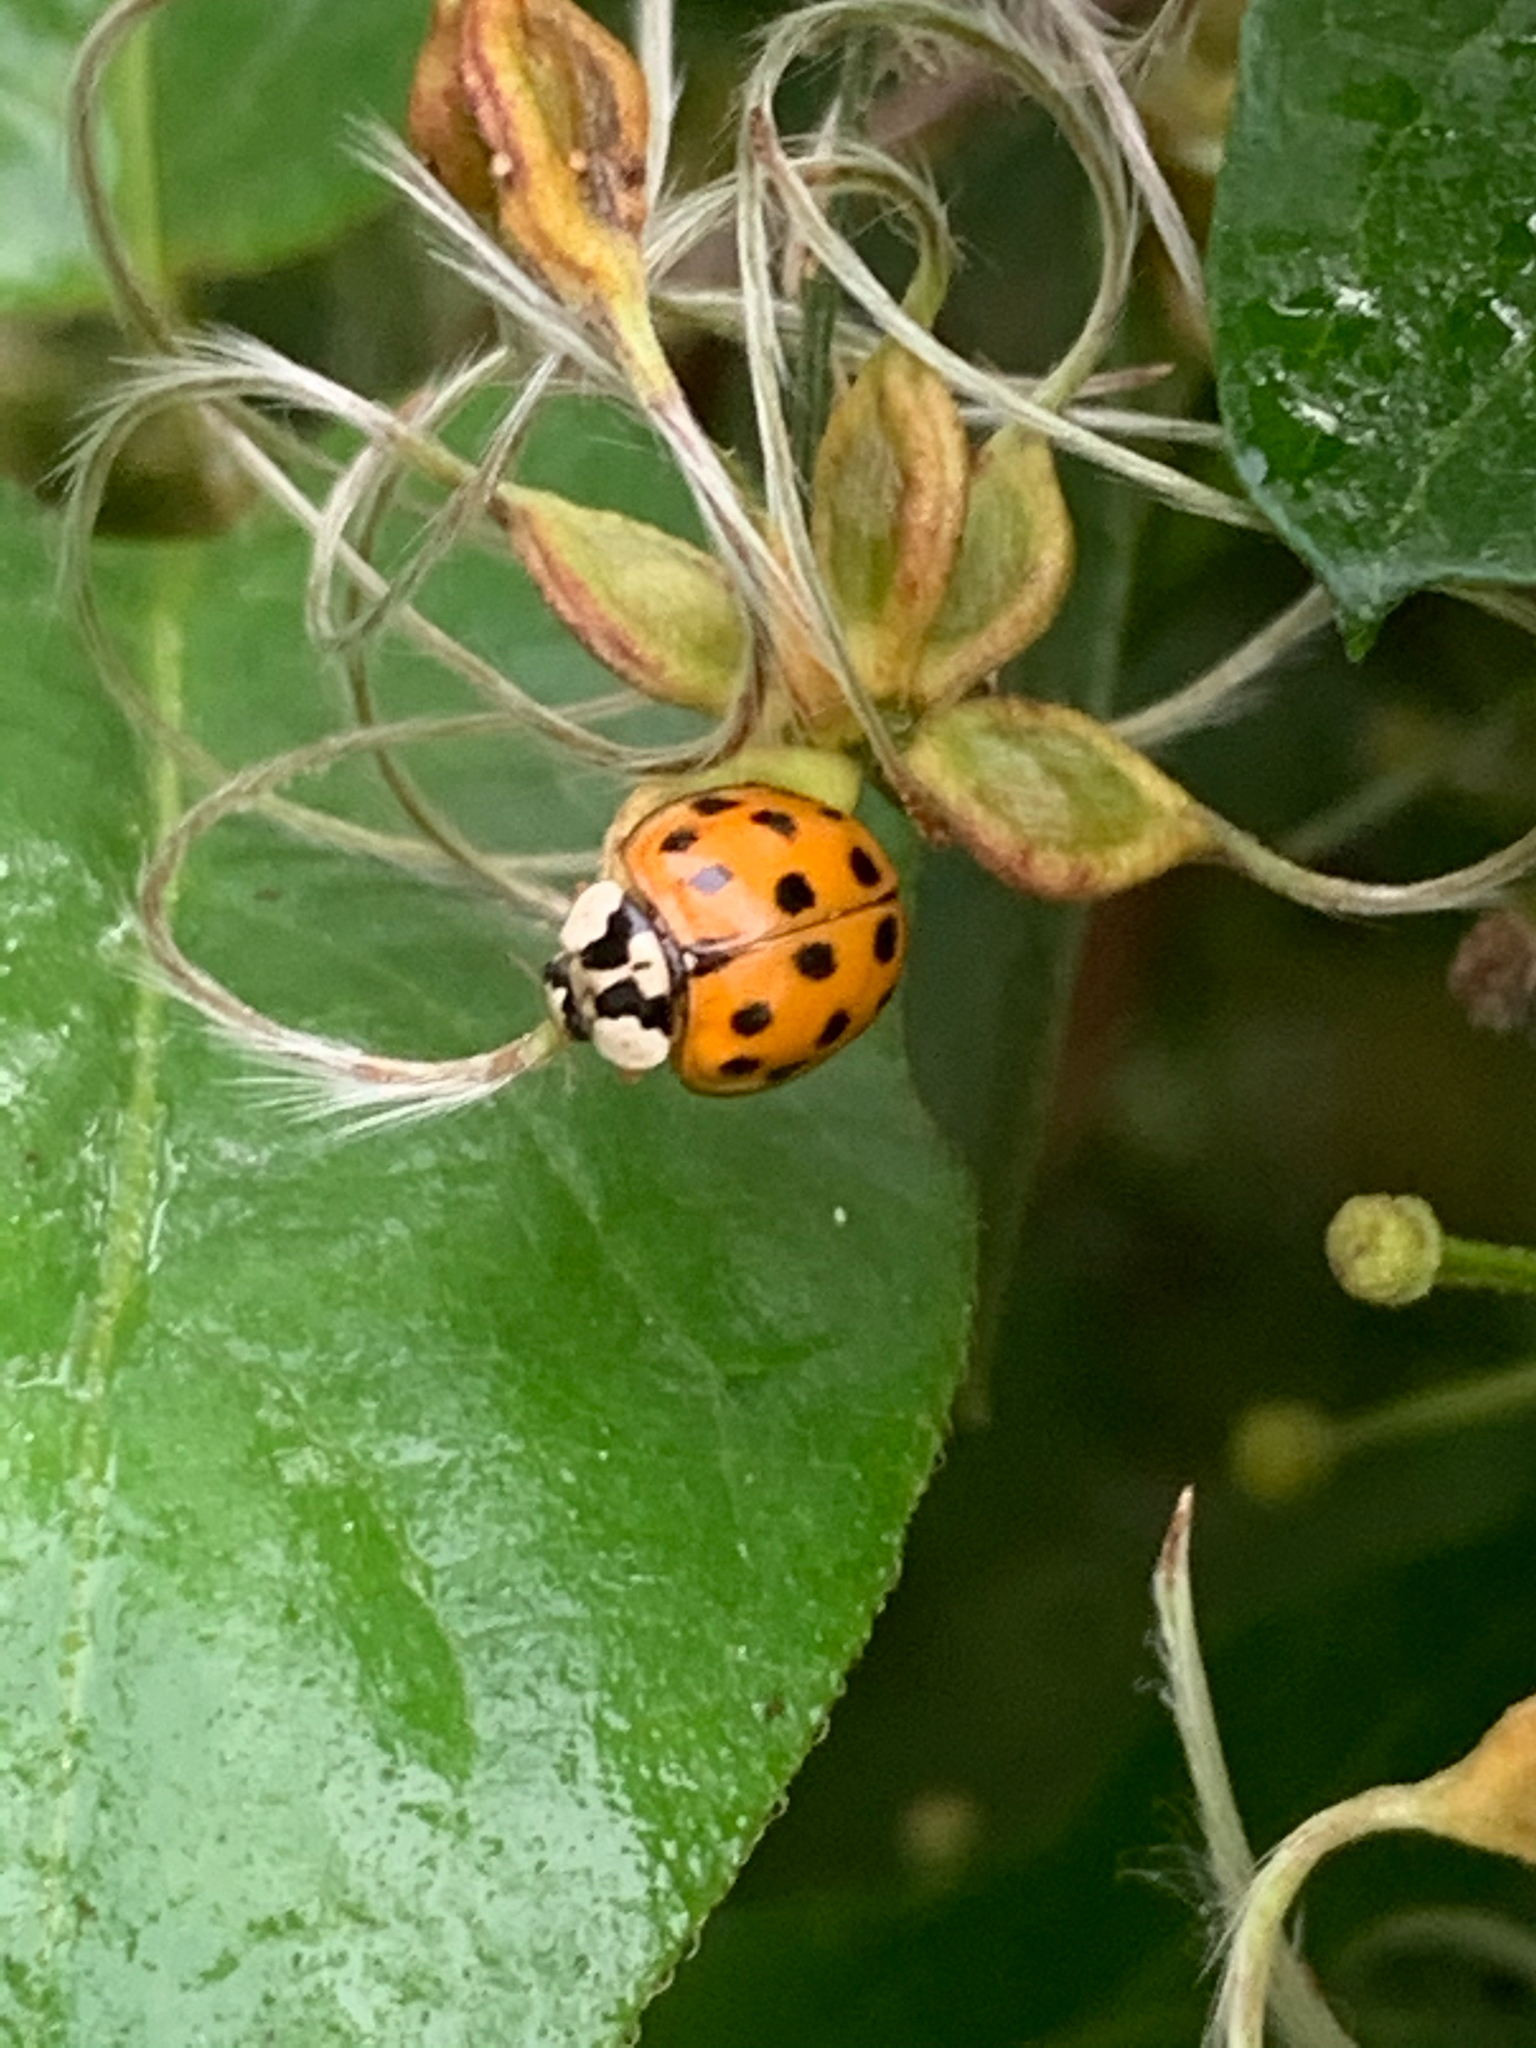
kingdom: Animalia
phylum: Arthropoda
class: Insecta
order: Coleoptera
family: Coccinellidae
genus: Harmonia
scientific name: Harmonia axyridis
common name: Harlequin ladybird
